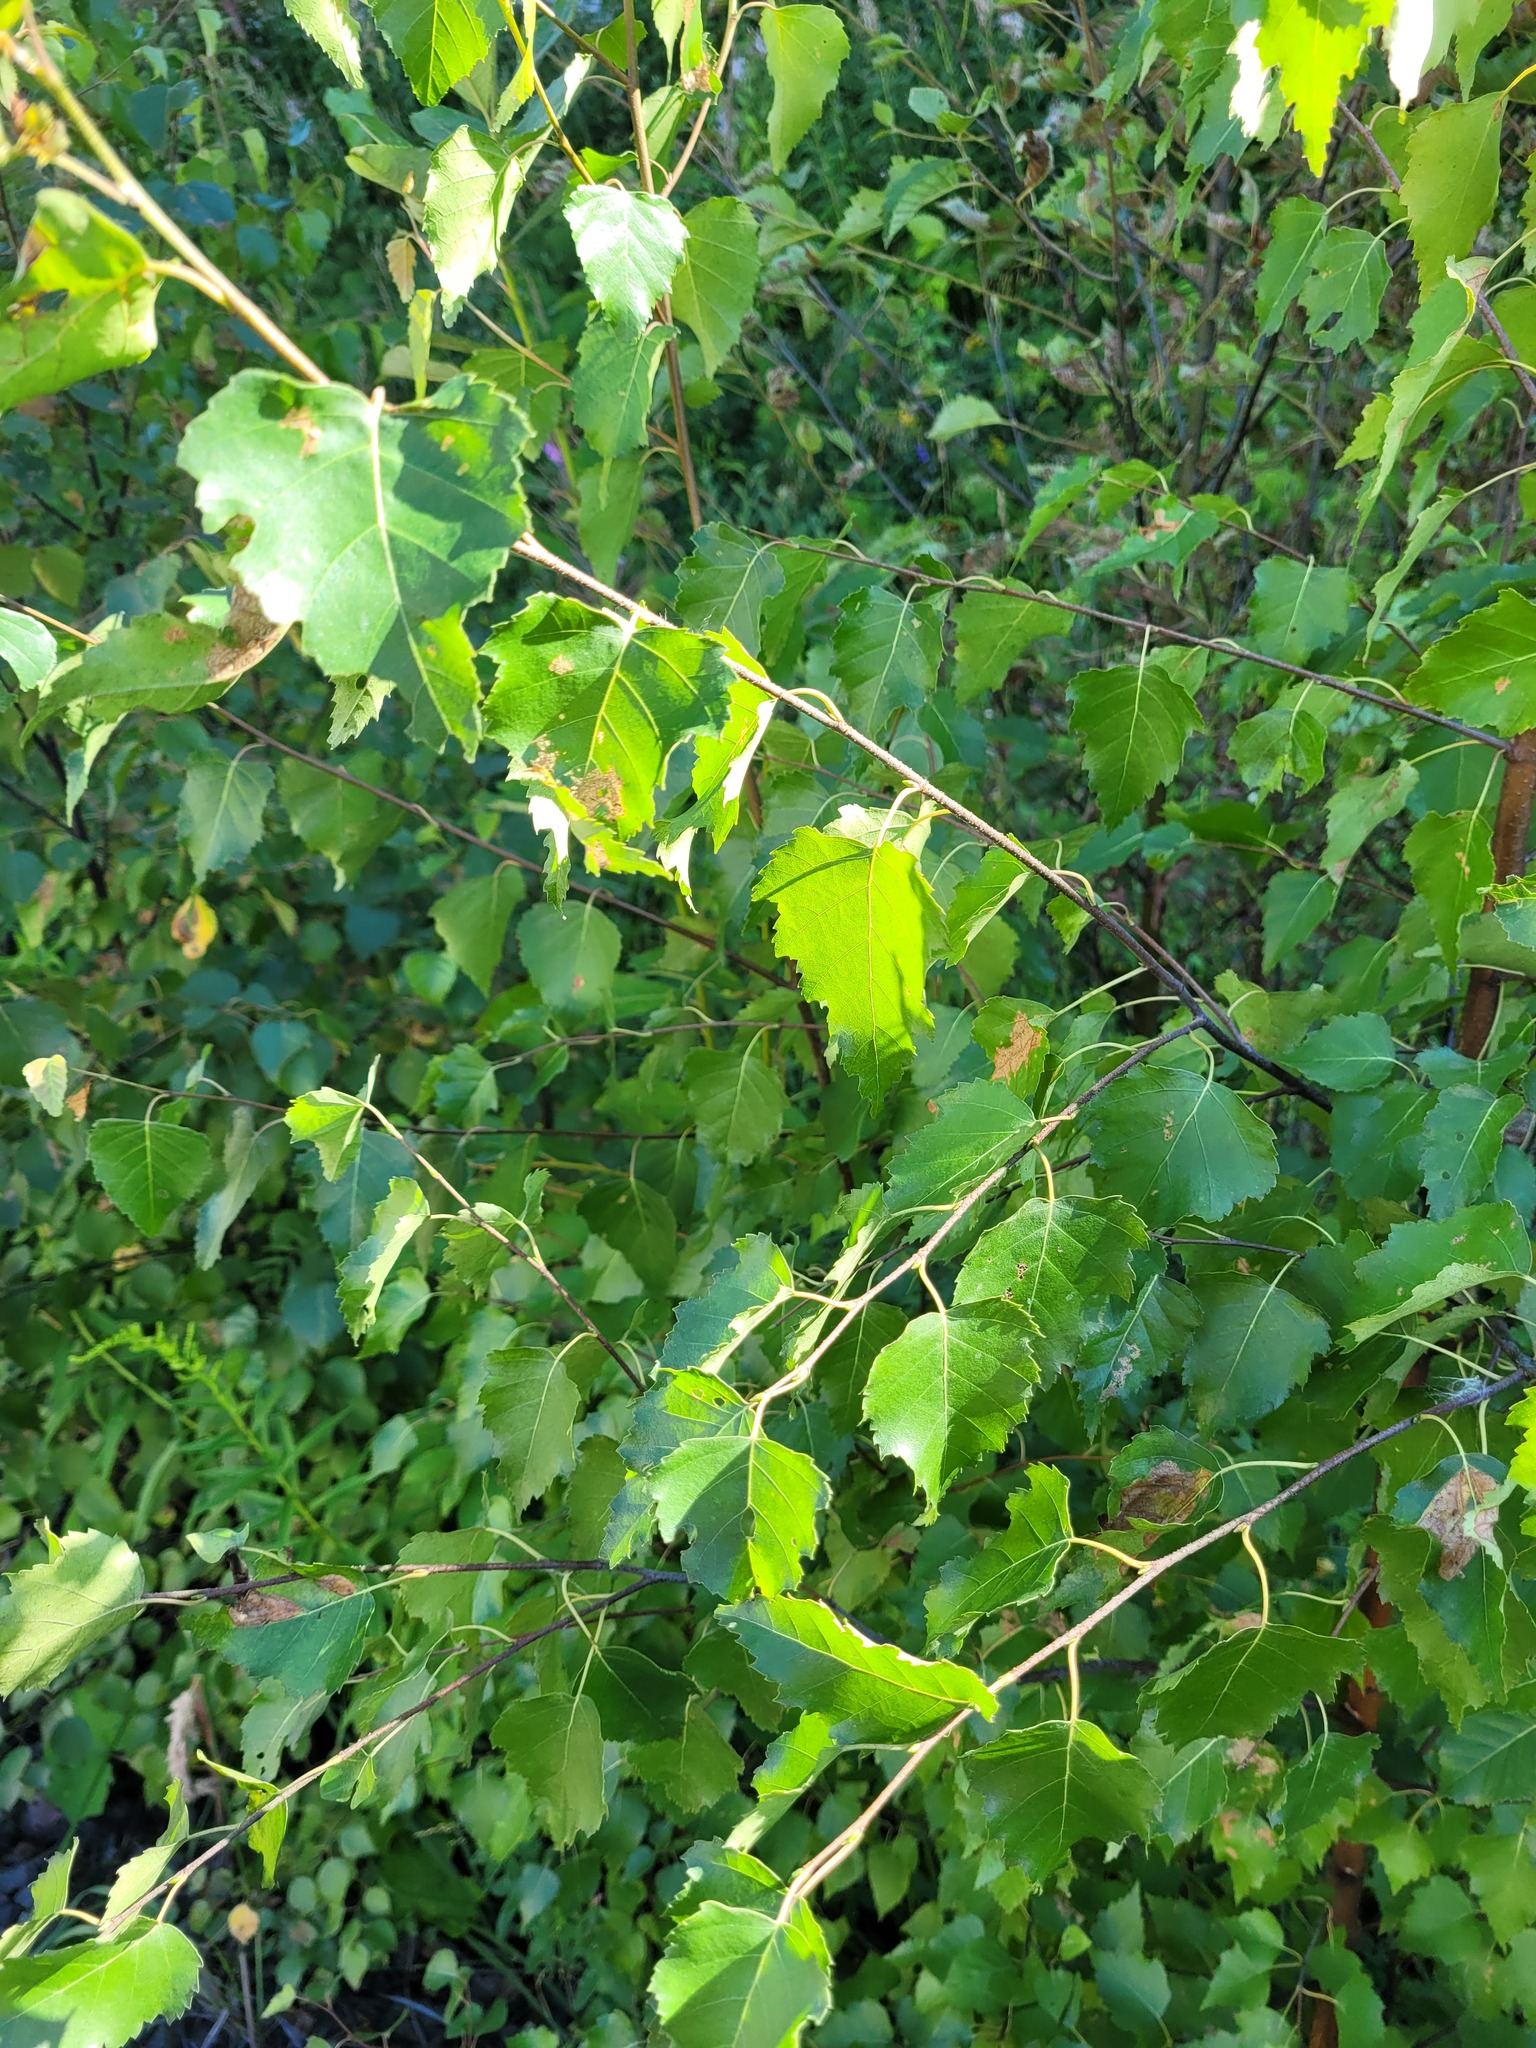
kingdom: Plantae
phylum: Tracheophyta
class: Magnoliopsida
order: Fagales
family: Betulaceae
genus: Betula
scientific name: Betula pendula
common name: Silver birch
